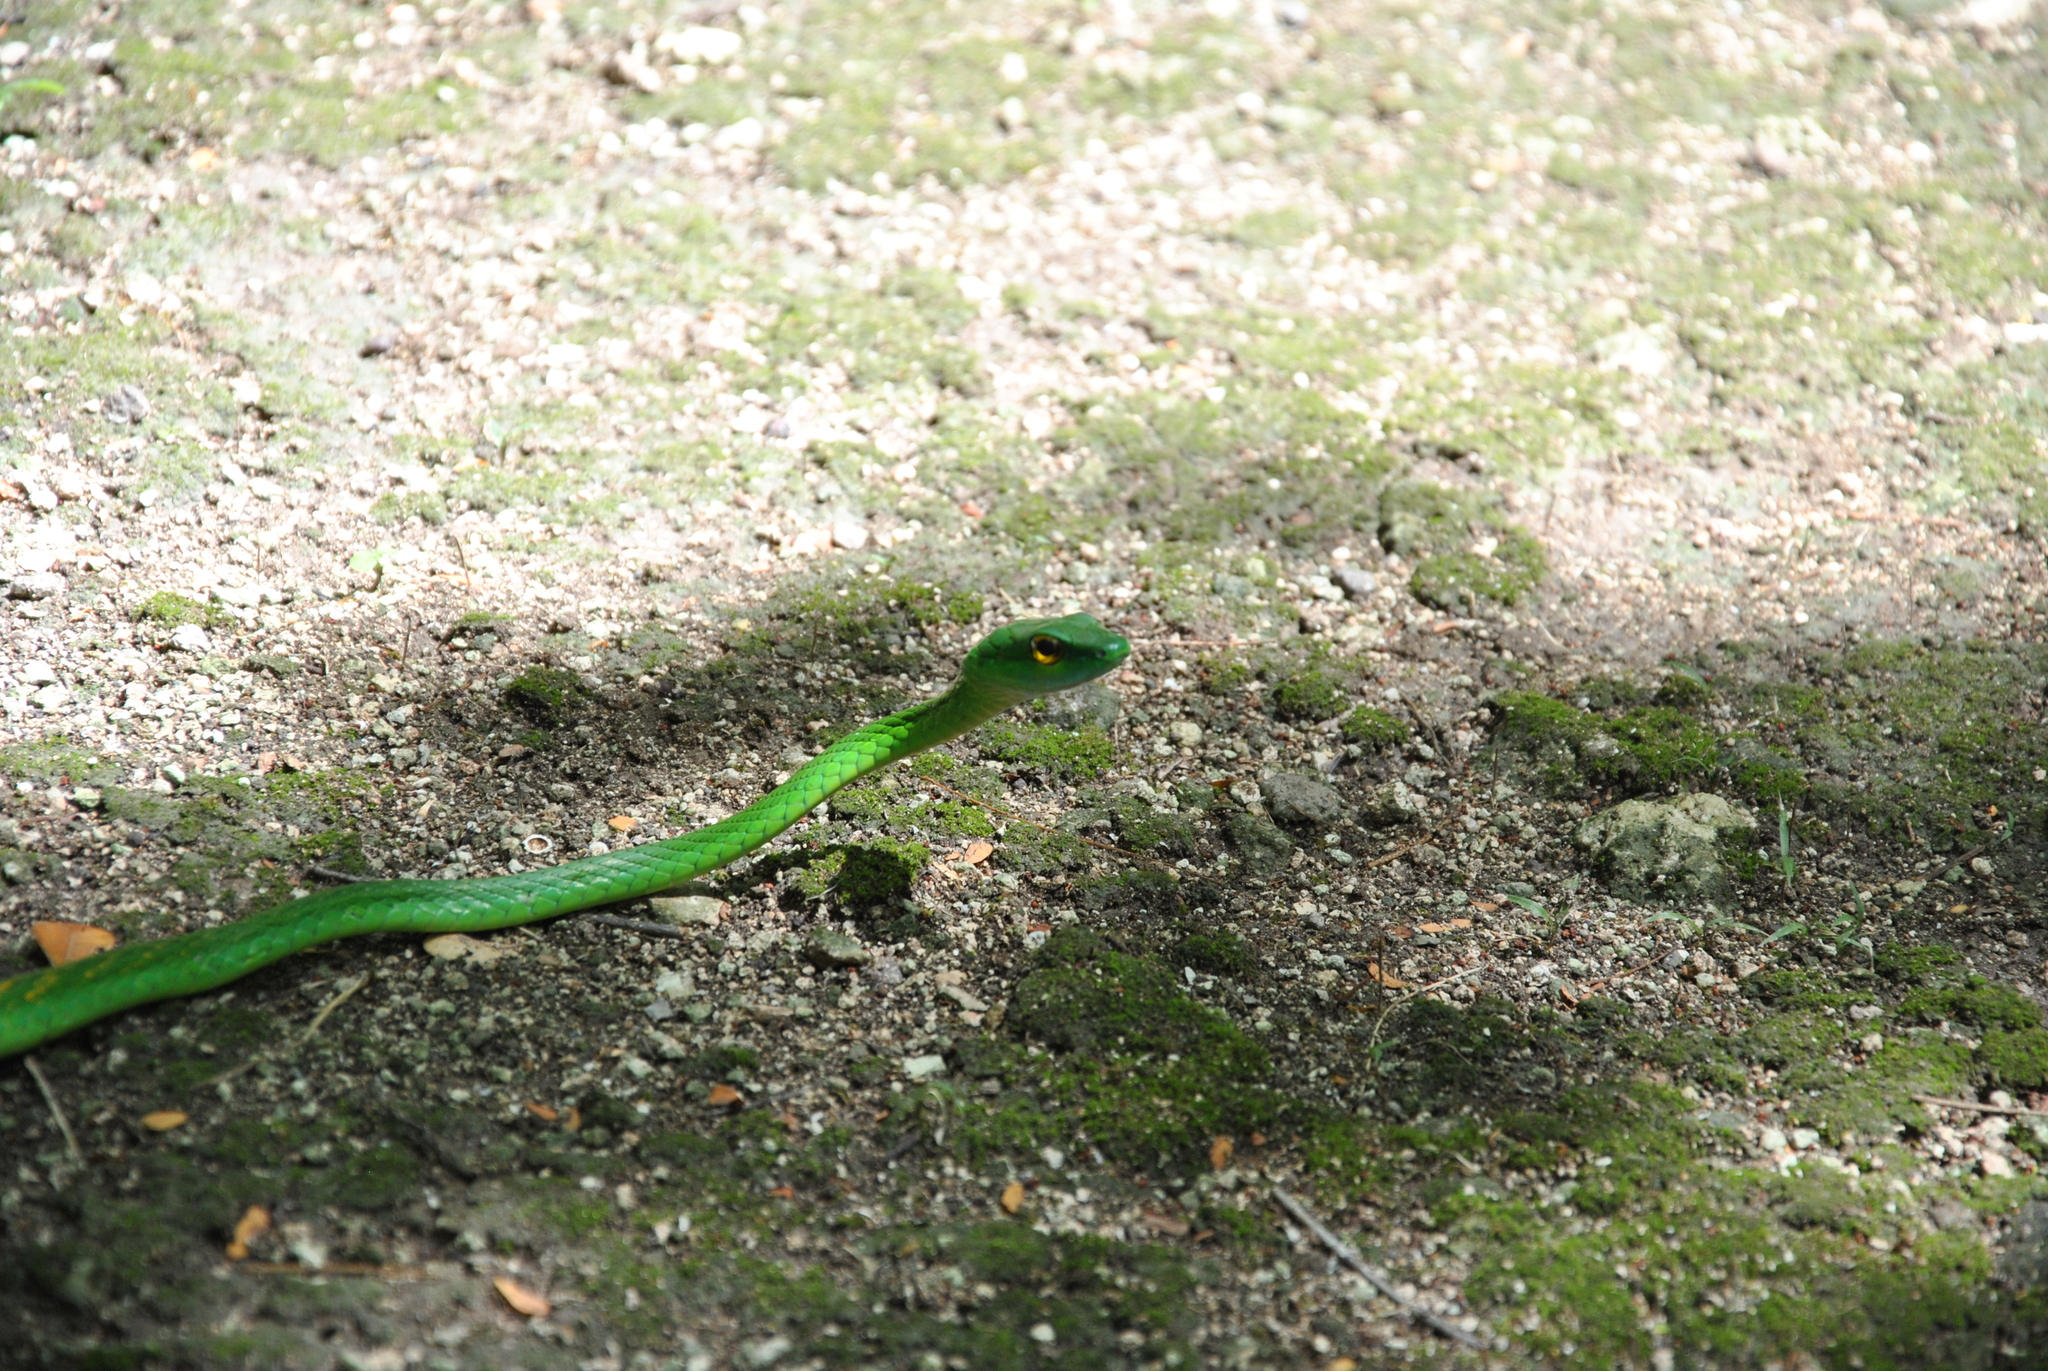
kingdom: Animalia
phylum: Chordata
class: Squamata
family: Colubridae
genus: Leptophis
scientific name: Leptophis ahaetulla
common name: Parrot snake
